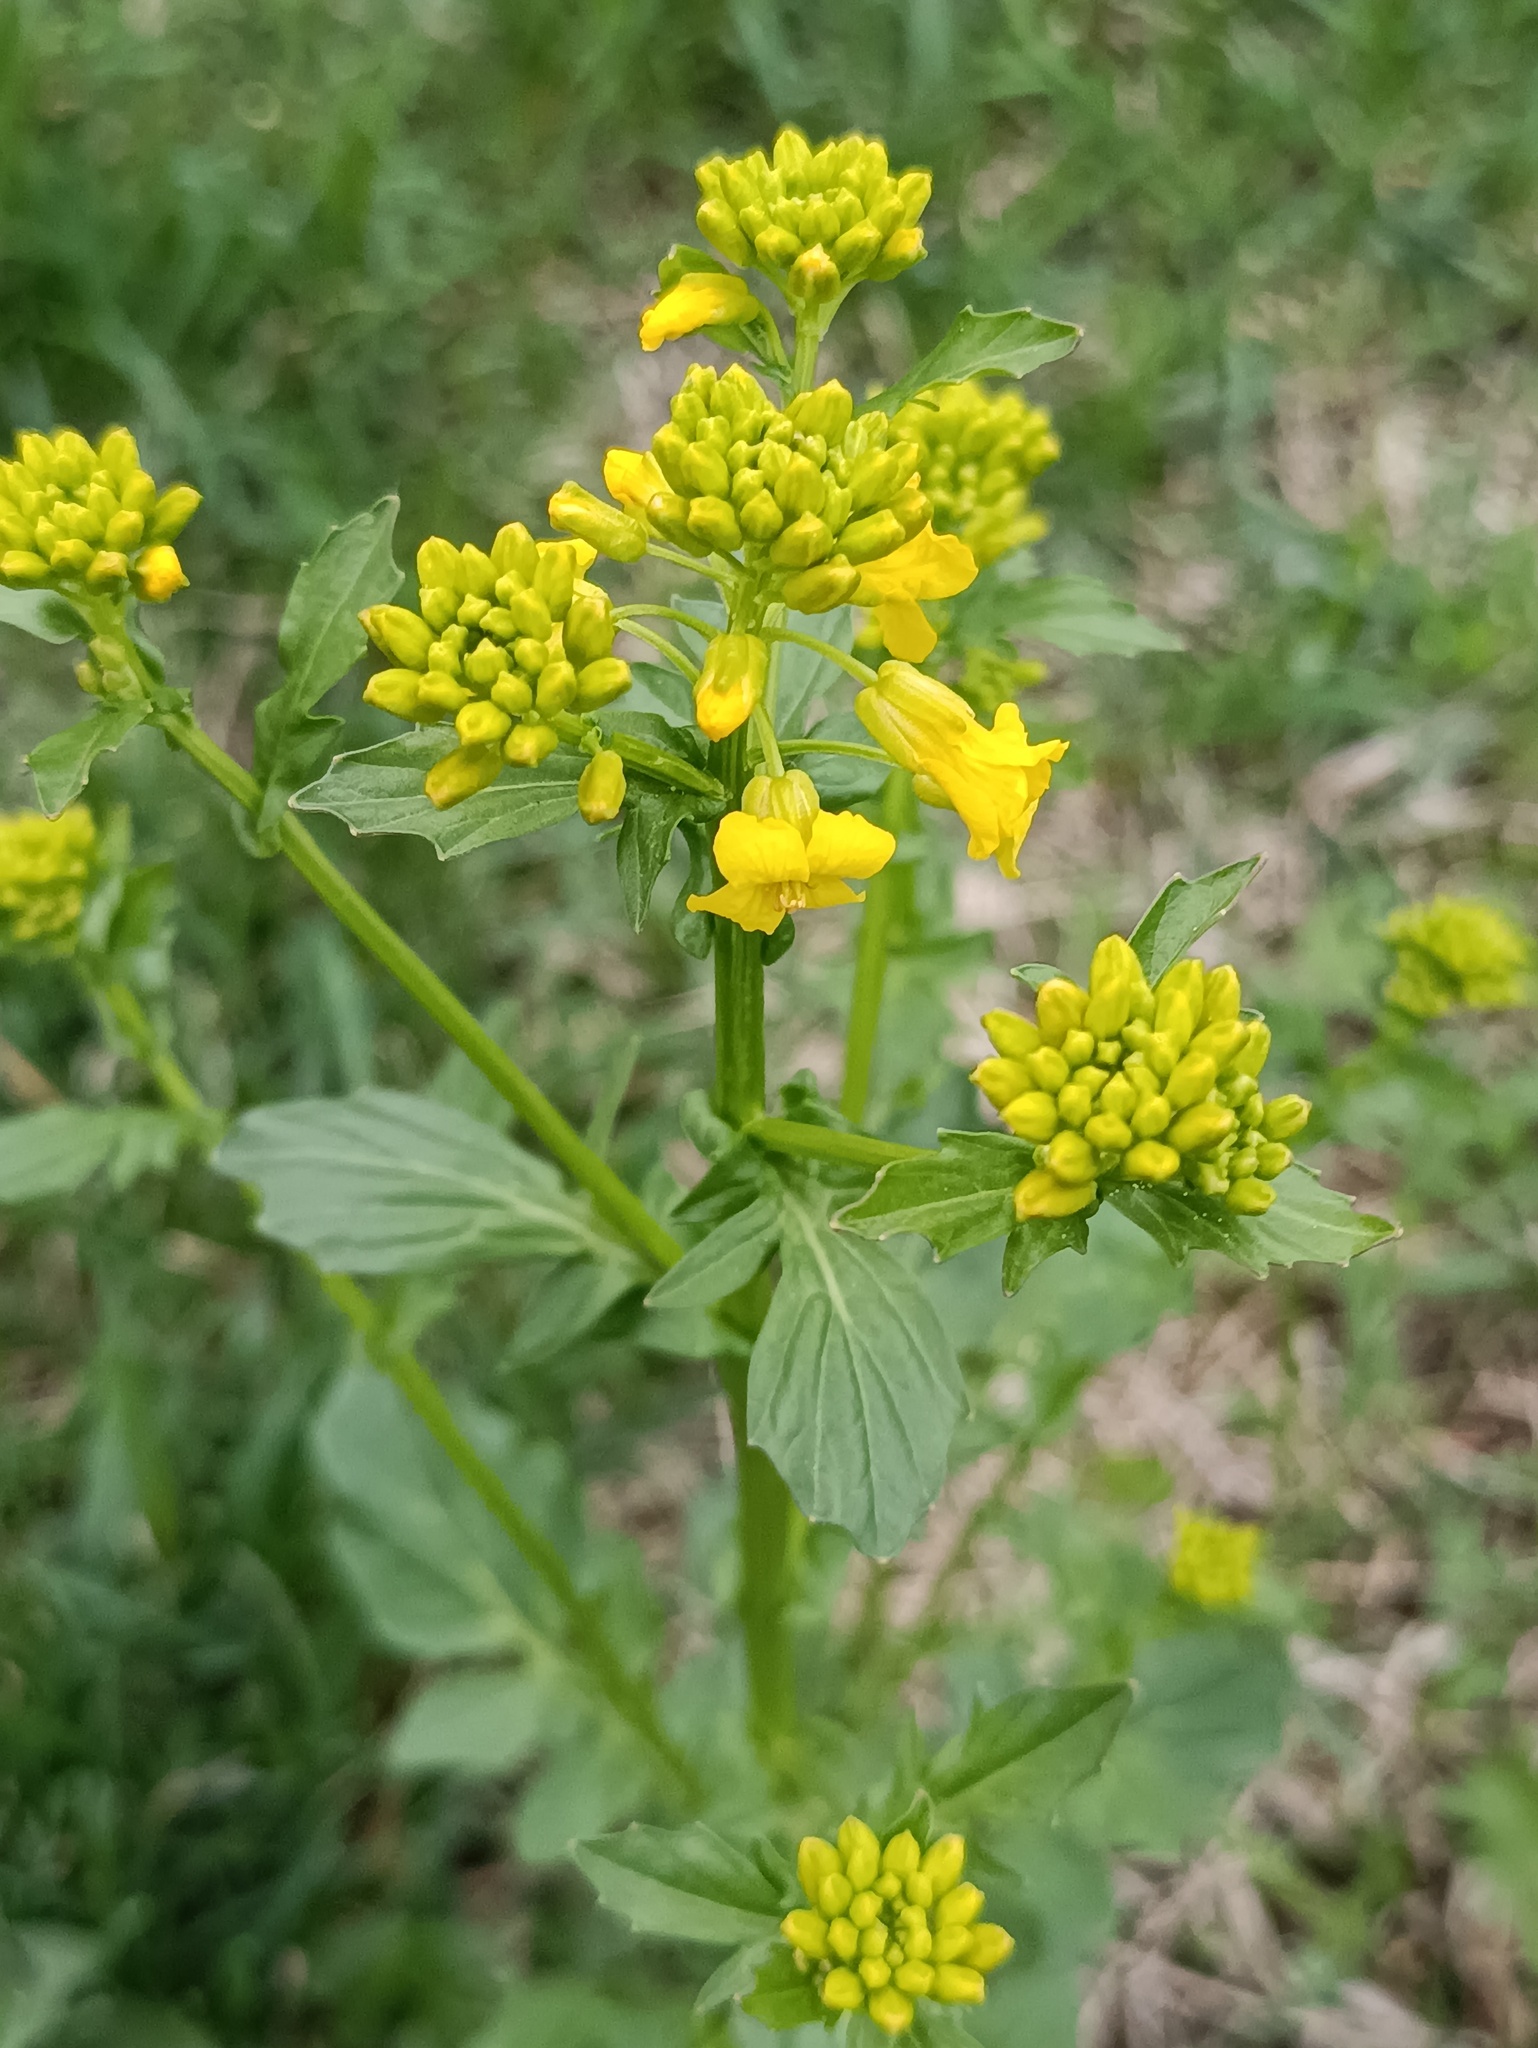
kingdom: Plantae
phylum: Tracheophyta
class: Magnoliopsida
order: Brassicales
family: Brassicaceae
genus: Barbarea
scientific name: Barbarea vulgaris
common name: Cressy-greens
